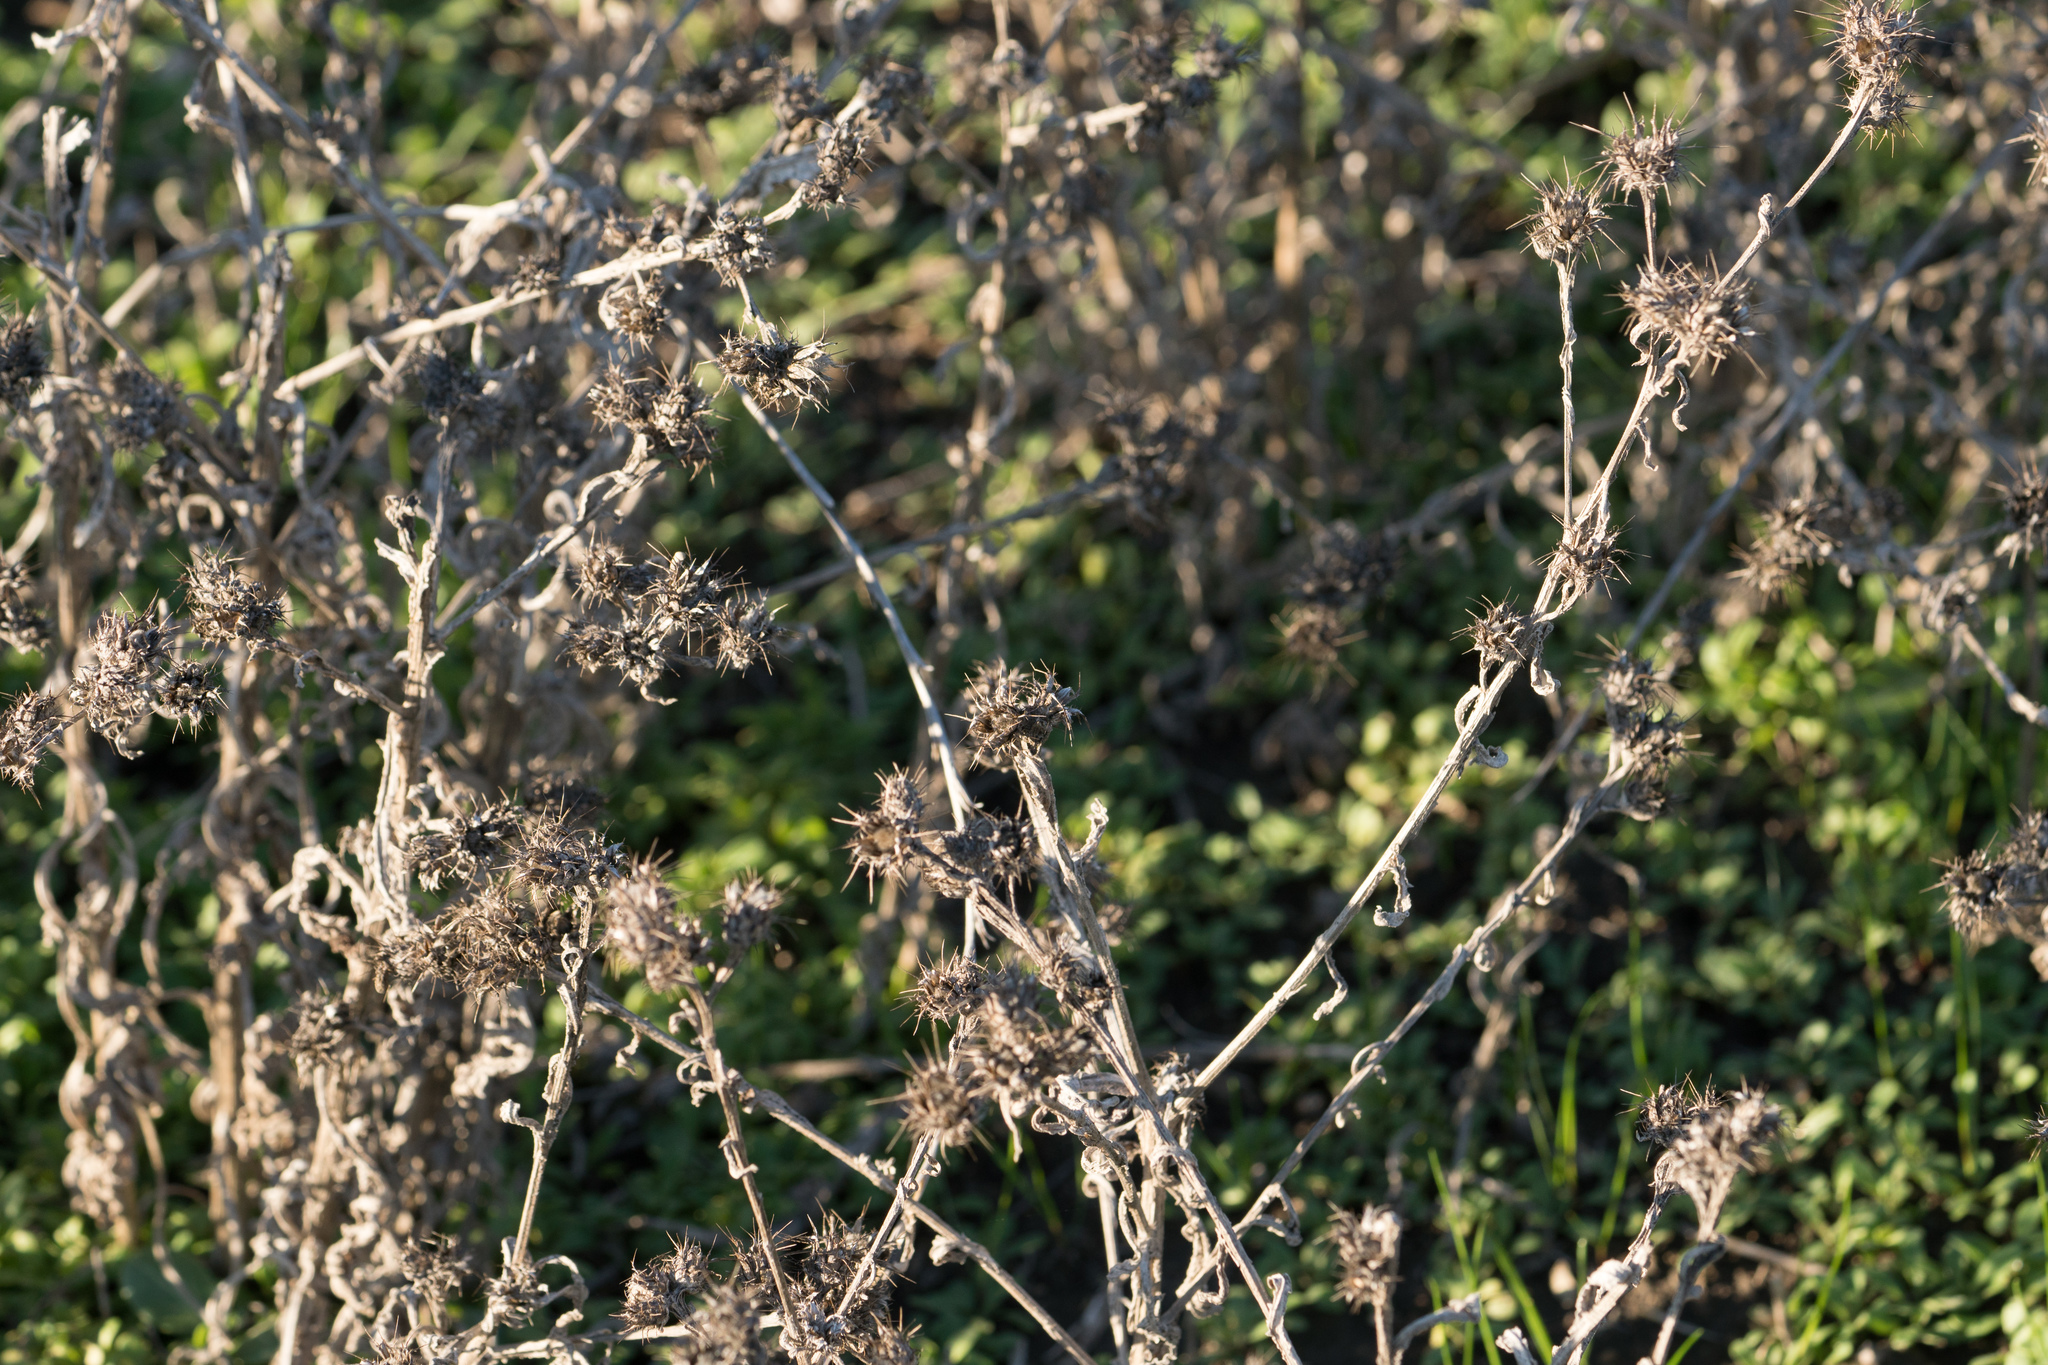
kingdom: Plantae
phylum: Tracheophyta
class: Magnoliopsida
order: Asterales
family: Asteraceae
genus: Centaurea
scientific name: Centaurea melitensis
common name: Maltese star-thistle
